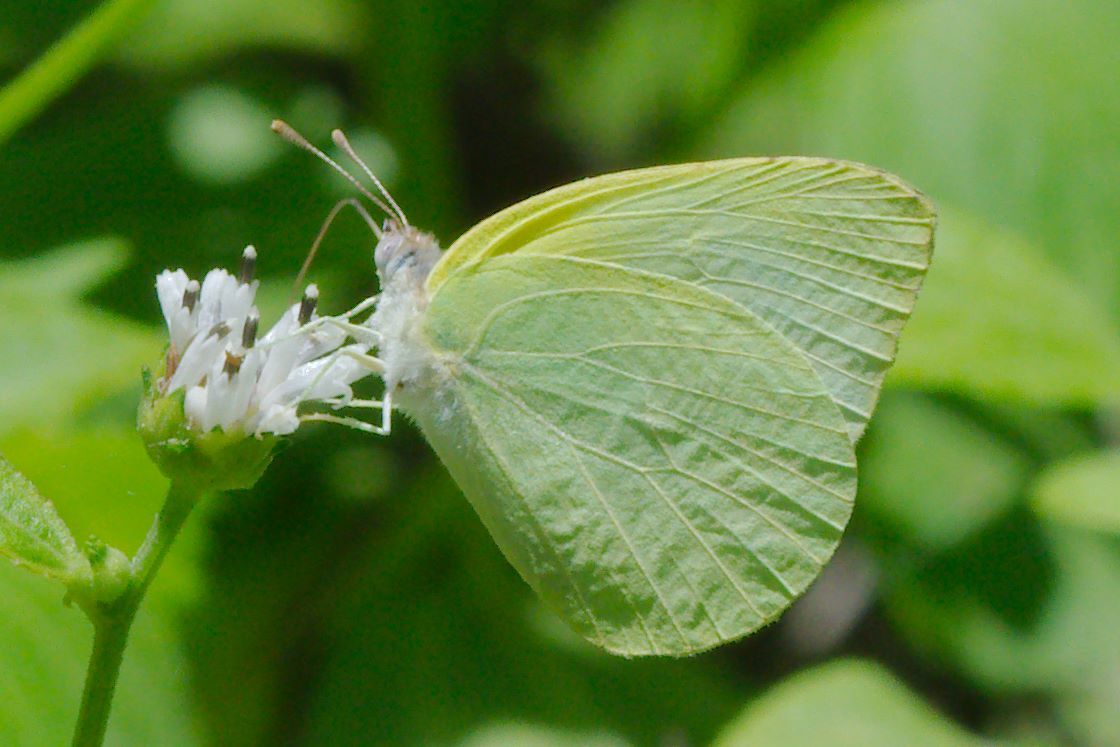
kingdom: Animalia
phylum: Arthropoda
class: Insecta
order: Lepidoptera
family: Pieridae
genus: Kricogonia
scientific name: Kricogonia lyside
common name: Guayacan sulphur,
